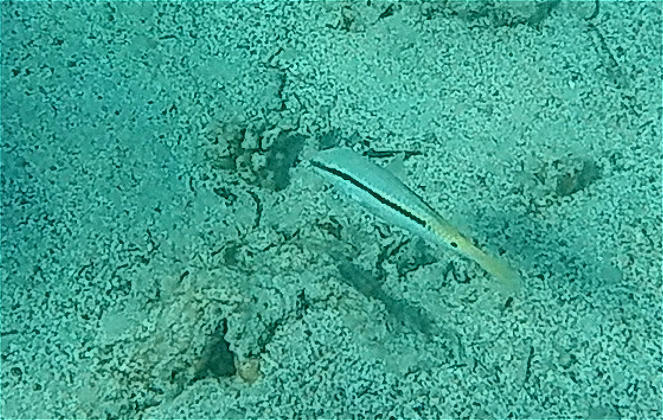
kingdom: Animalia
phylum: Chordata
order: Perciformes
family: Mullidae
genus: Parupeneus
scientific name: Parupeneus forsskali
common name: Red sea goatfish
